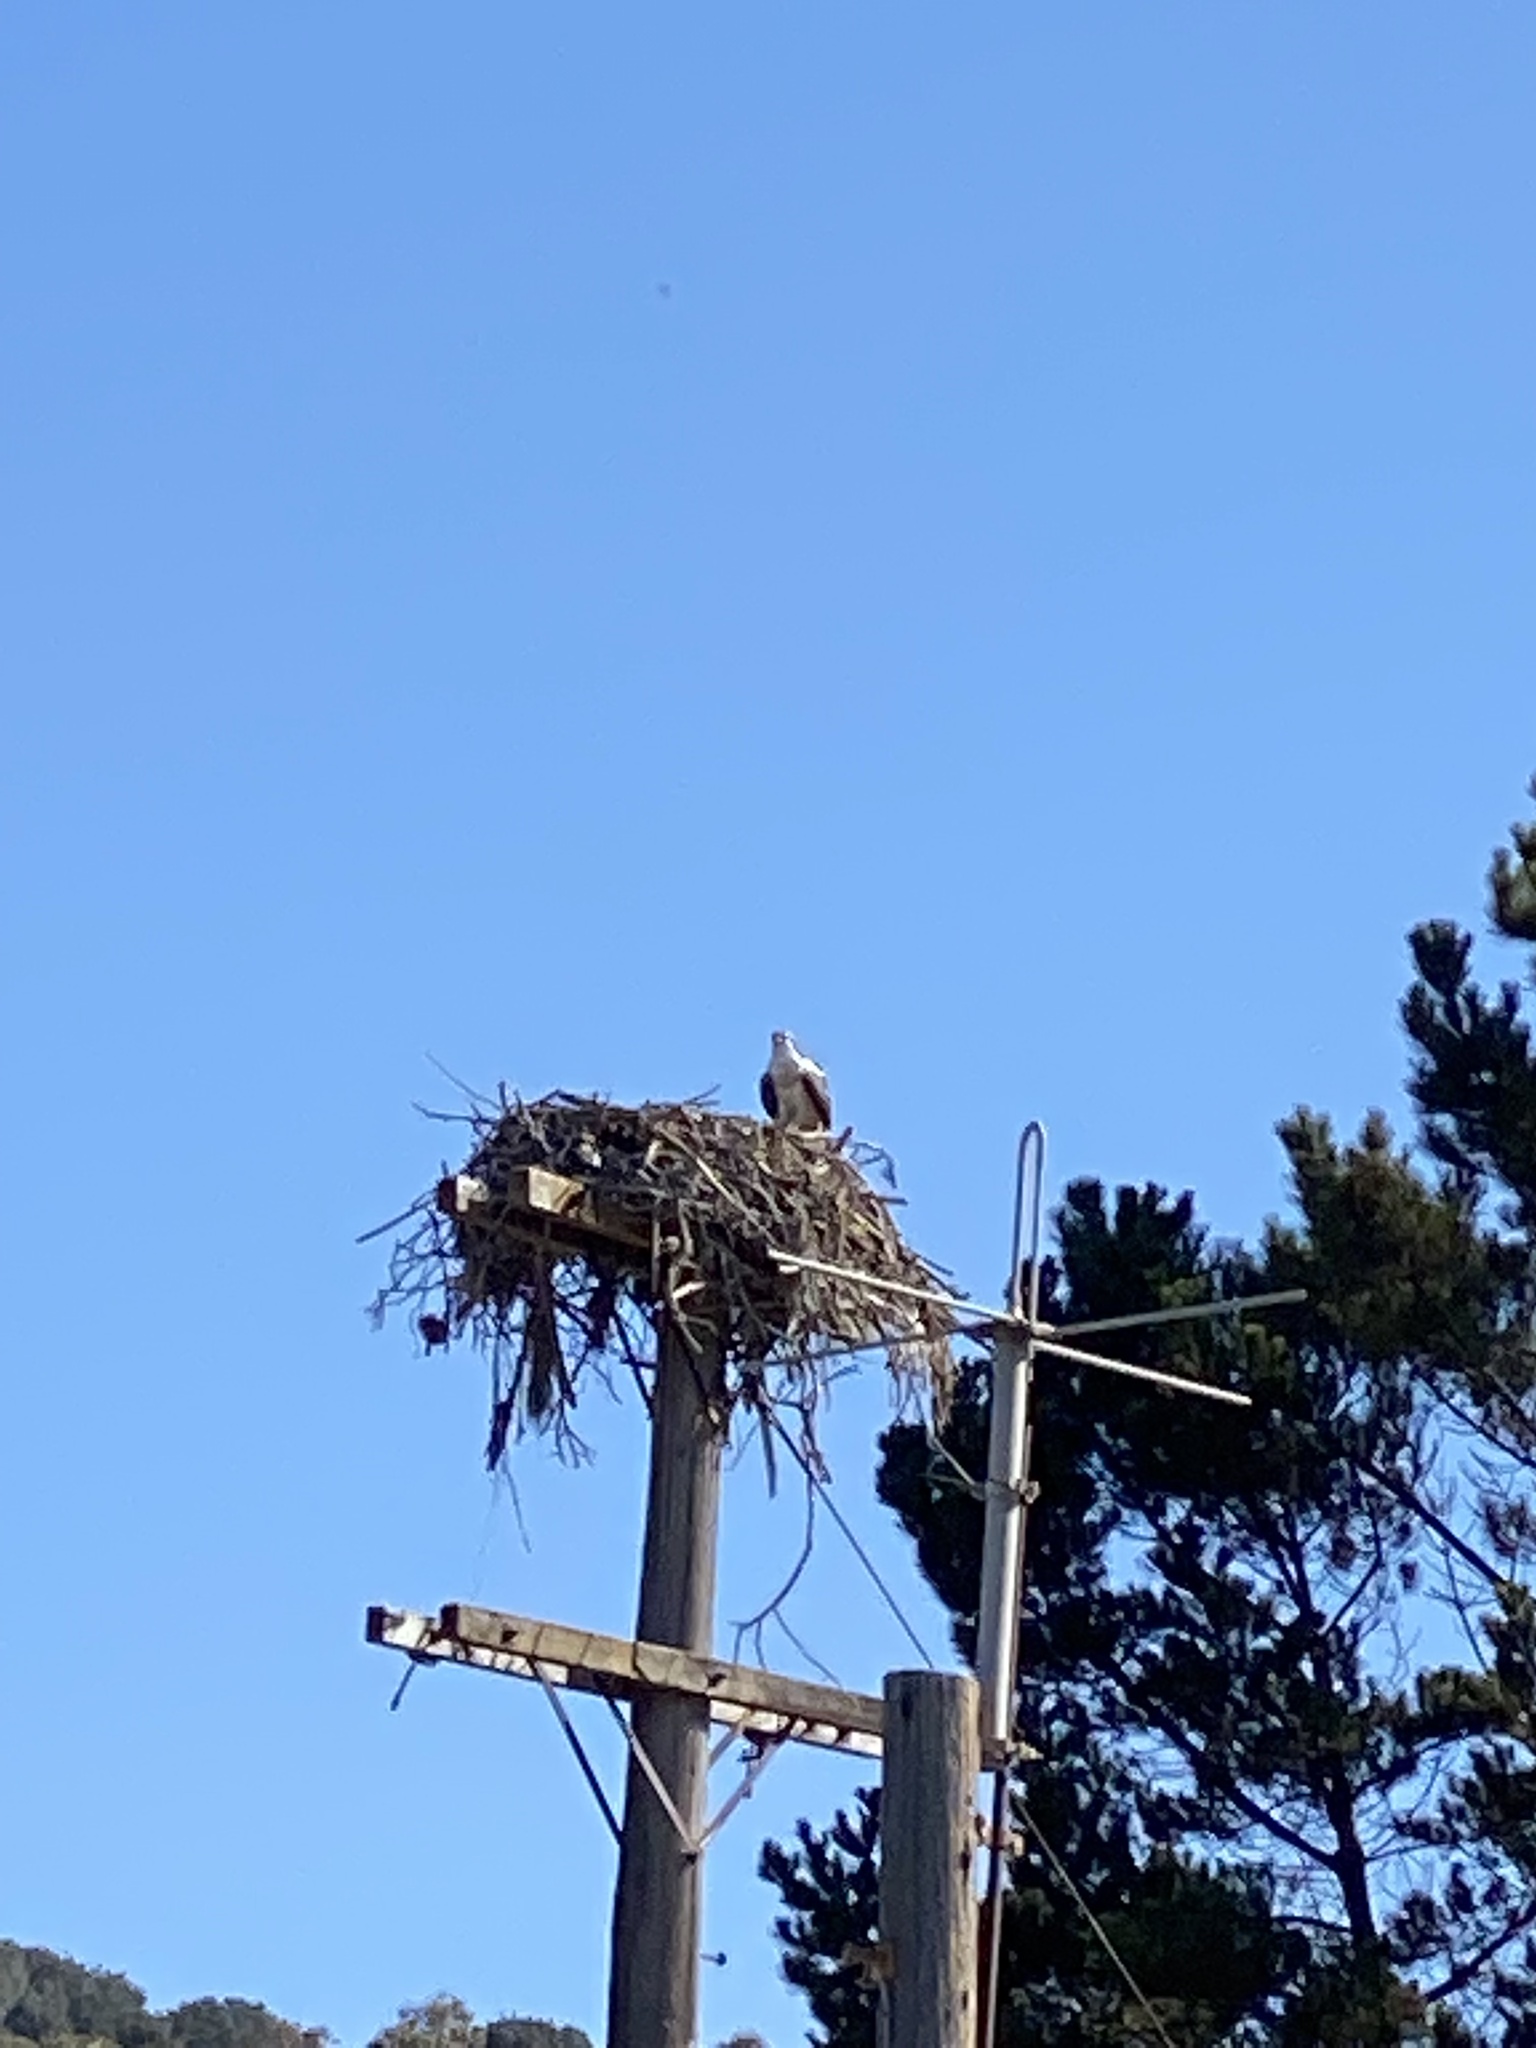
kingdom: Animalia
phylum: Chordata
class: Aves
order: Accipitriformes
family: Pandionidae
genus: Pandion
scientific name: Pandion haliaetus
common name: Osprey
